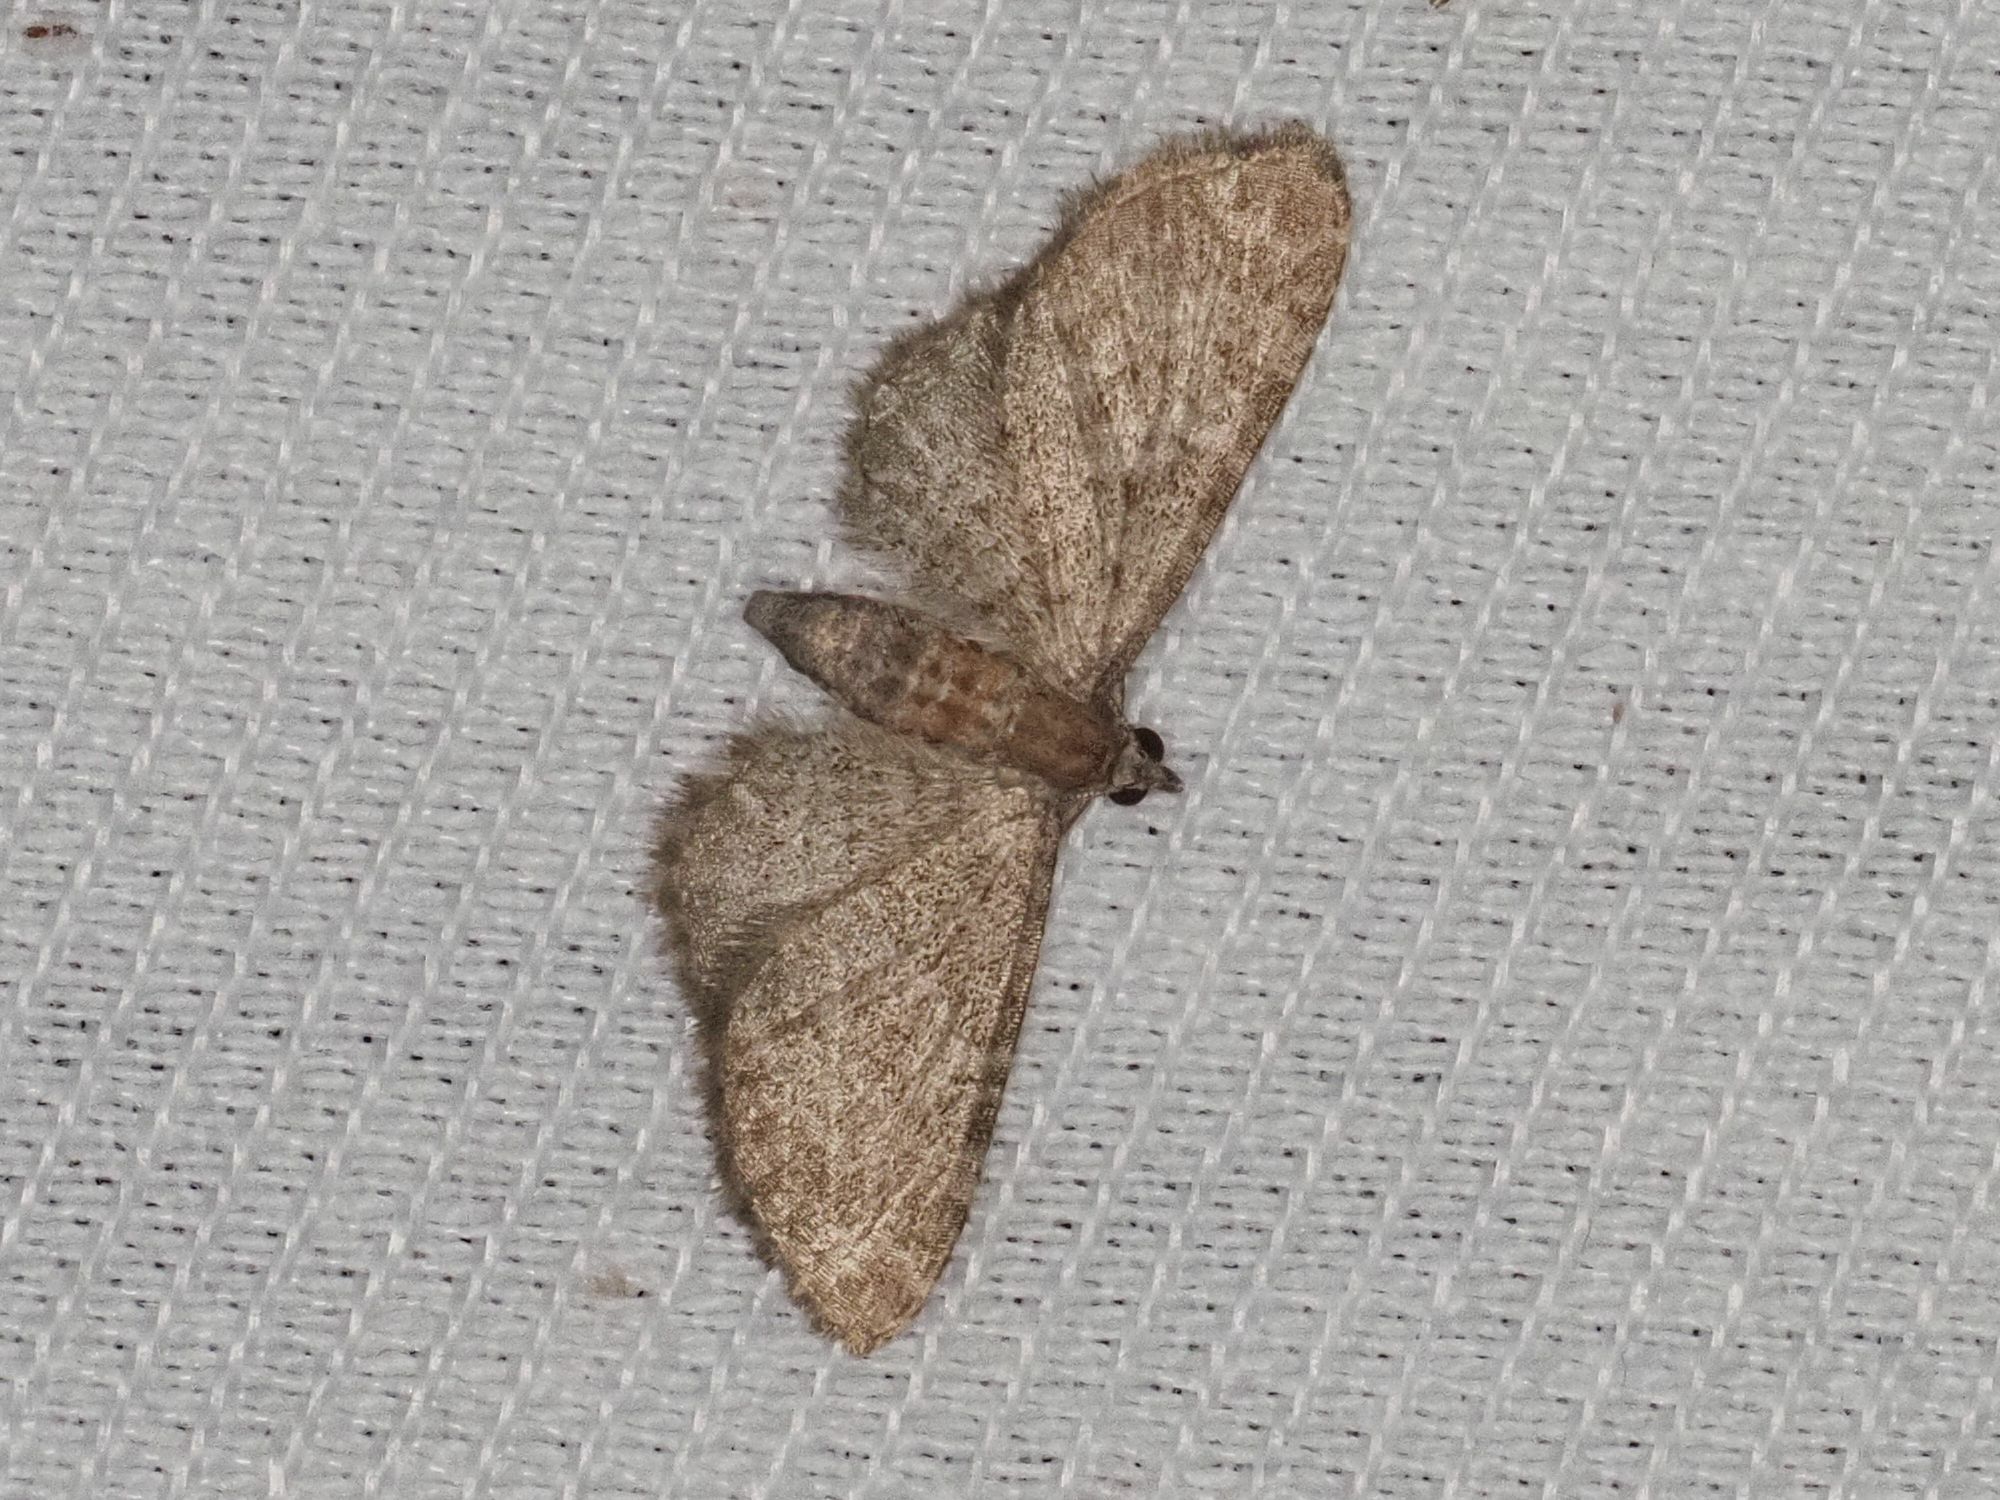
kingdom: Animalia
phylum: Arthropoda
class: Insecta
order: Lepidoptera
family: Geometridae
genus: Eupithecia
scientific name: Eupithecia haworthiata
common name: Haworth's pug
